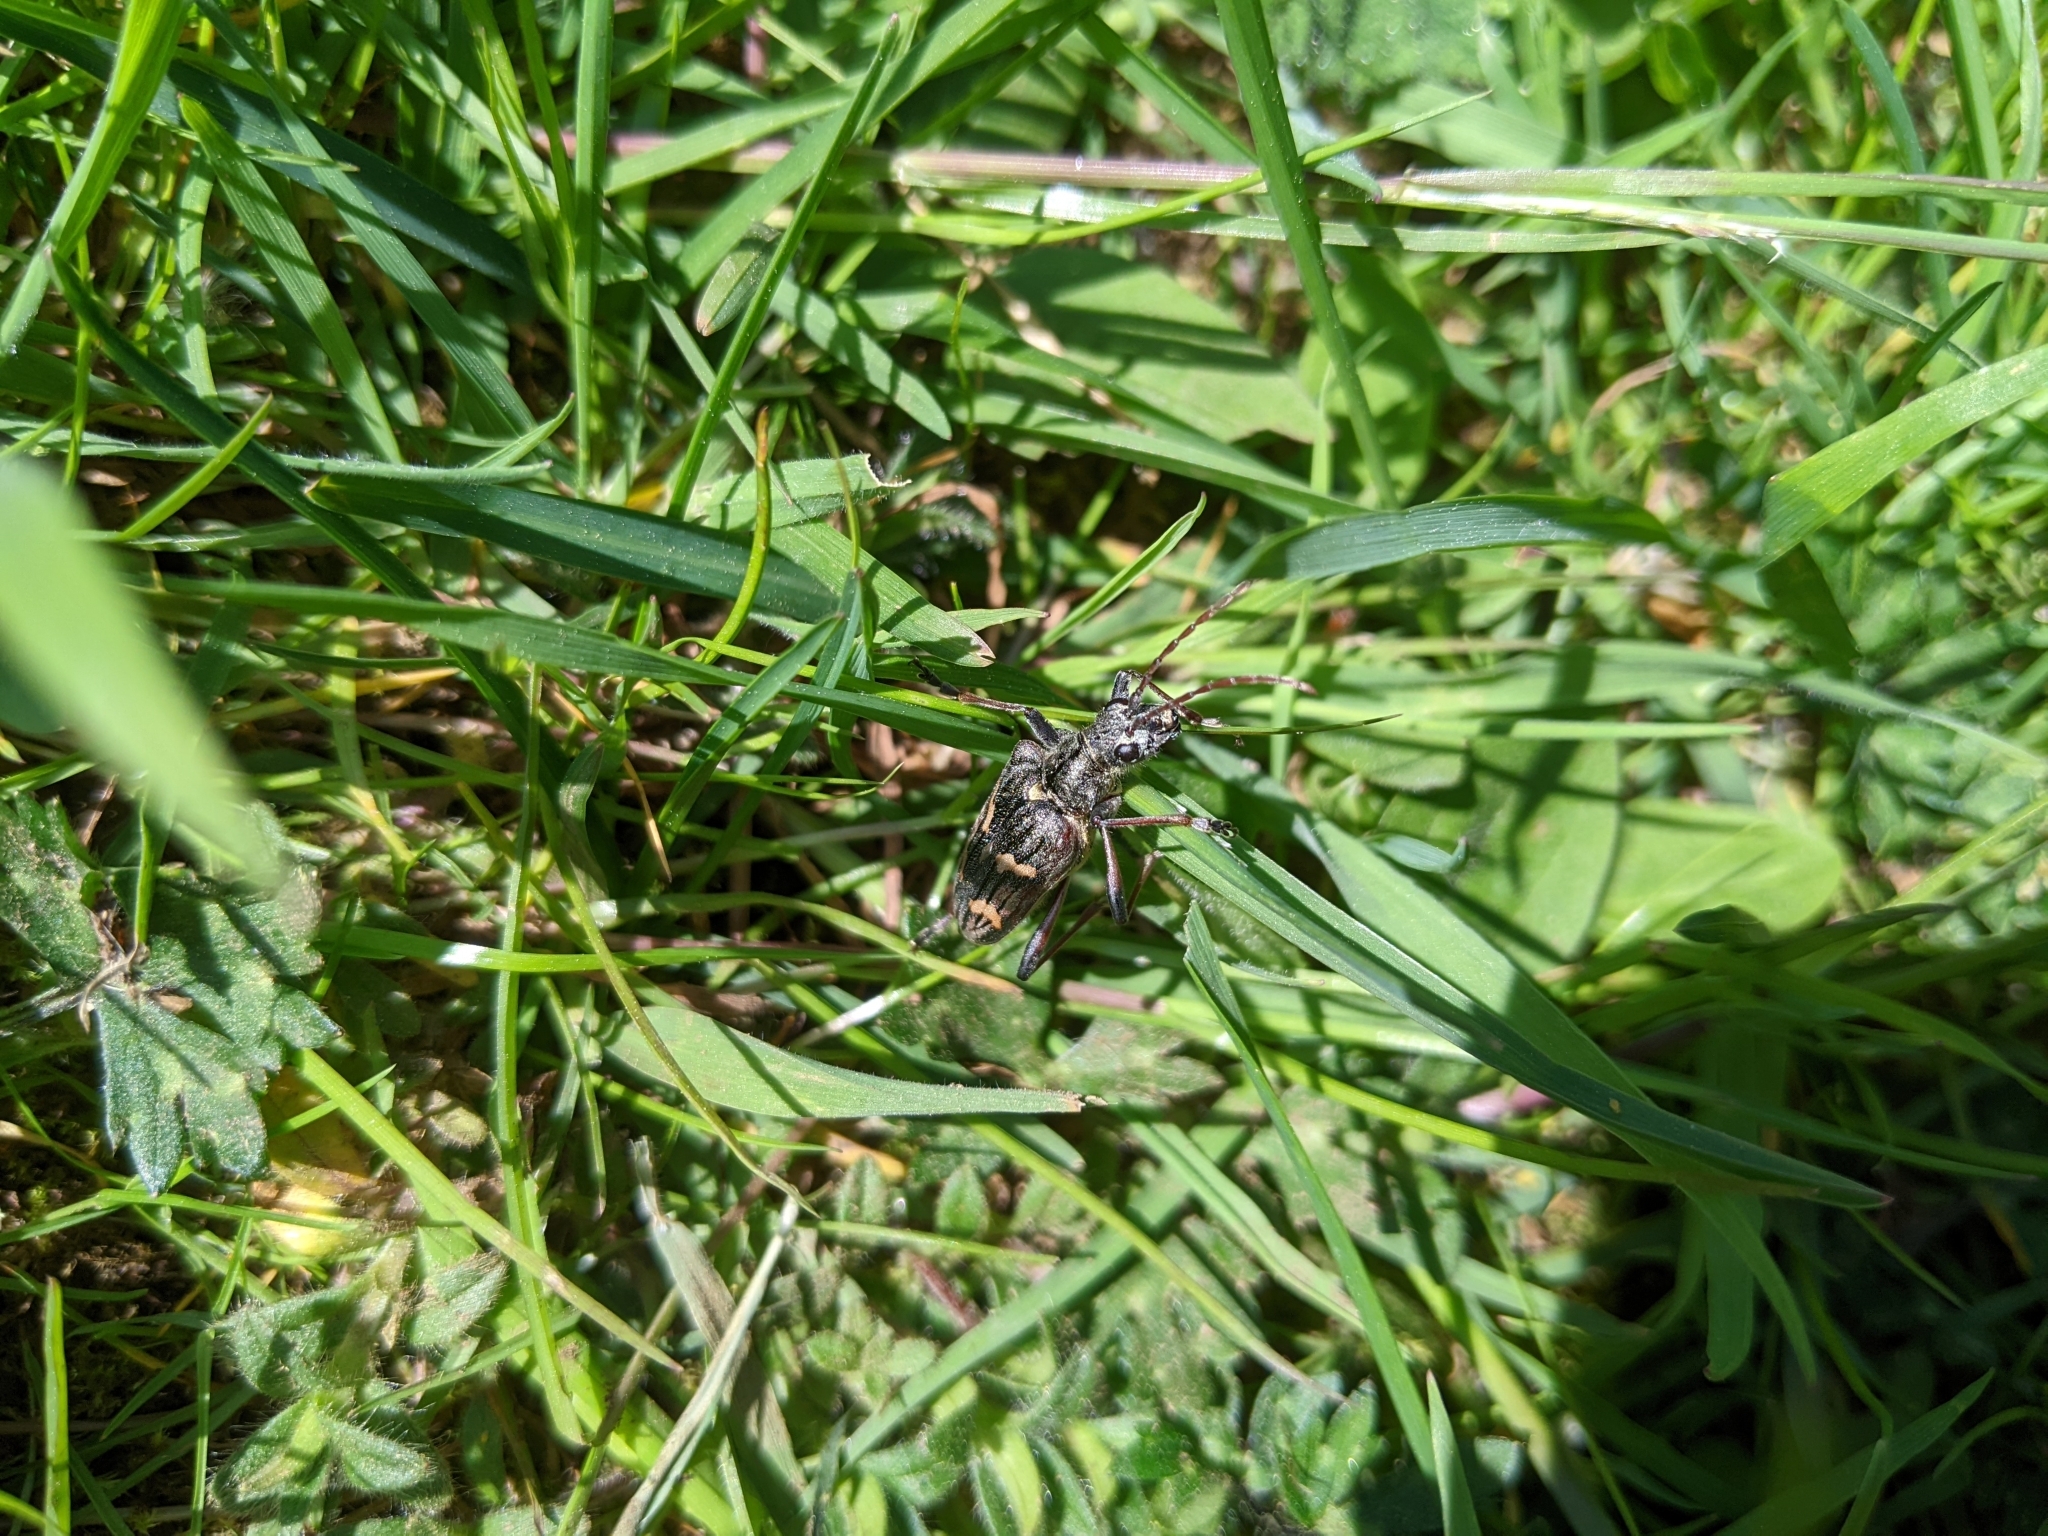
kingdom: Animalia
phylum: Arthropoda
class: Insecta
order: Coleoptera
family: Cerambycidae
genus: Rhagium
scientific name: Rhagium bifasciatum
